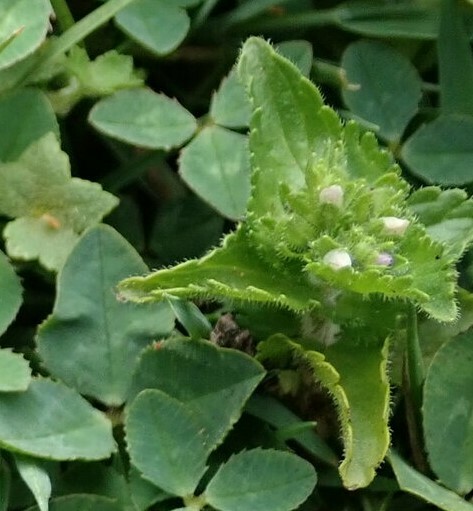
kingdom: Plantae
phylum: Tracheophyta
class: Magnoliopsida
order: Lamiales
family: Plantaginaceae
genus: Veronica
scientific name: Veronica javanica
